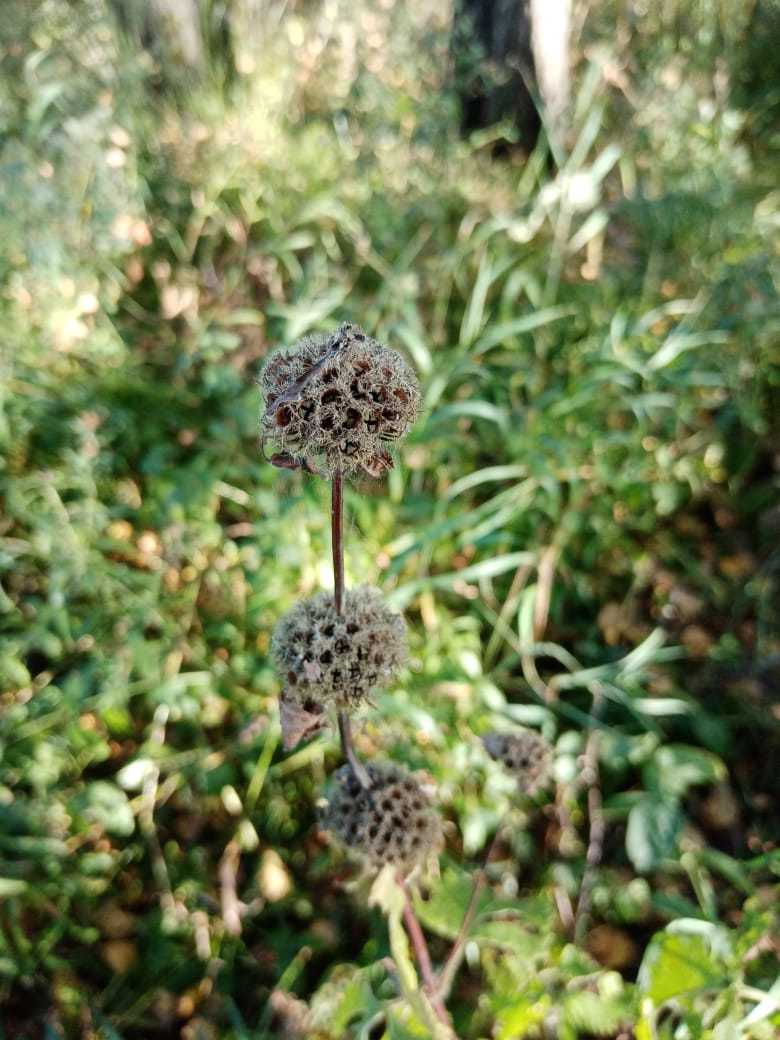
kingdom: Plantae
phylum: Tracheophyta
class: Magnoliopsida
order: Lamiales
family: Lamiaceae
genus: Phlomoides
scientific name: Phlomoides tuberosa
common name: Tuberous jerusalem sage
